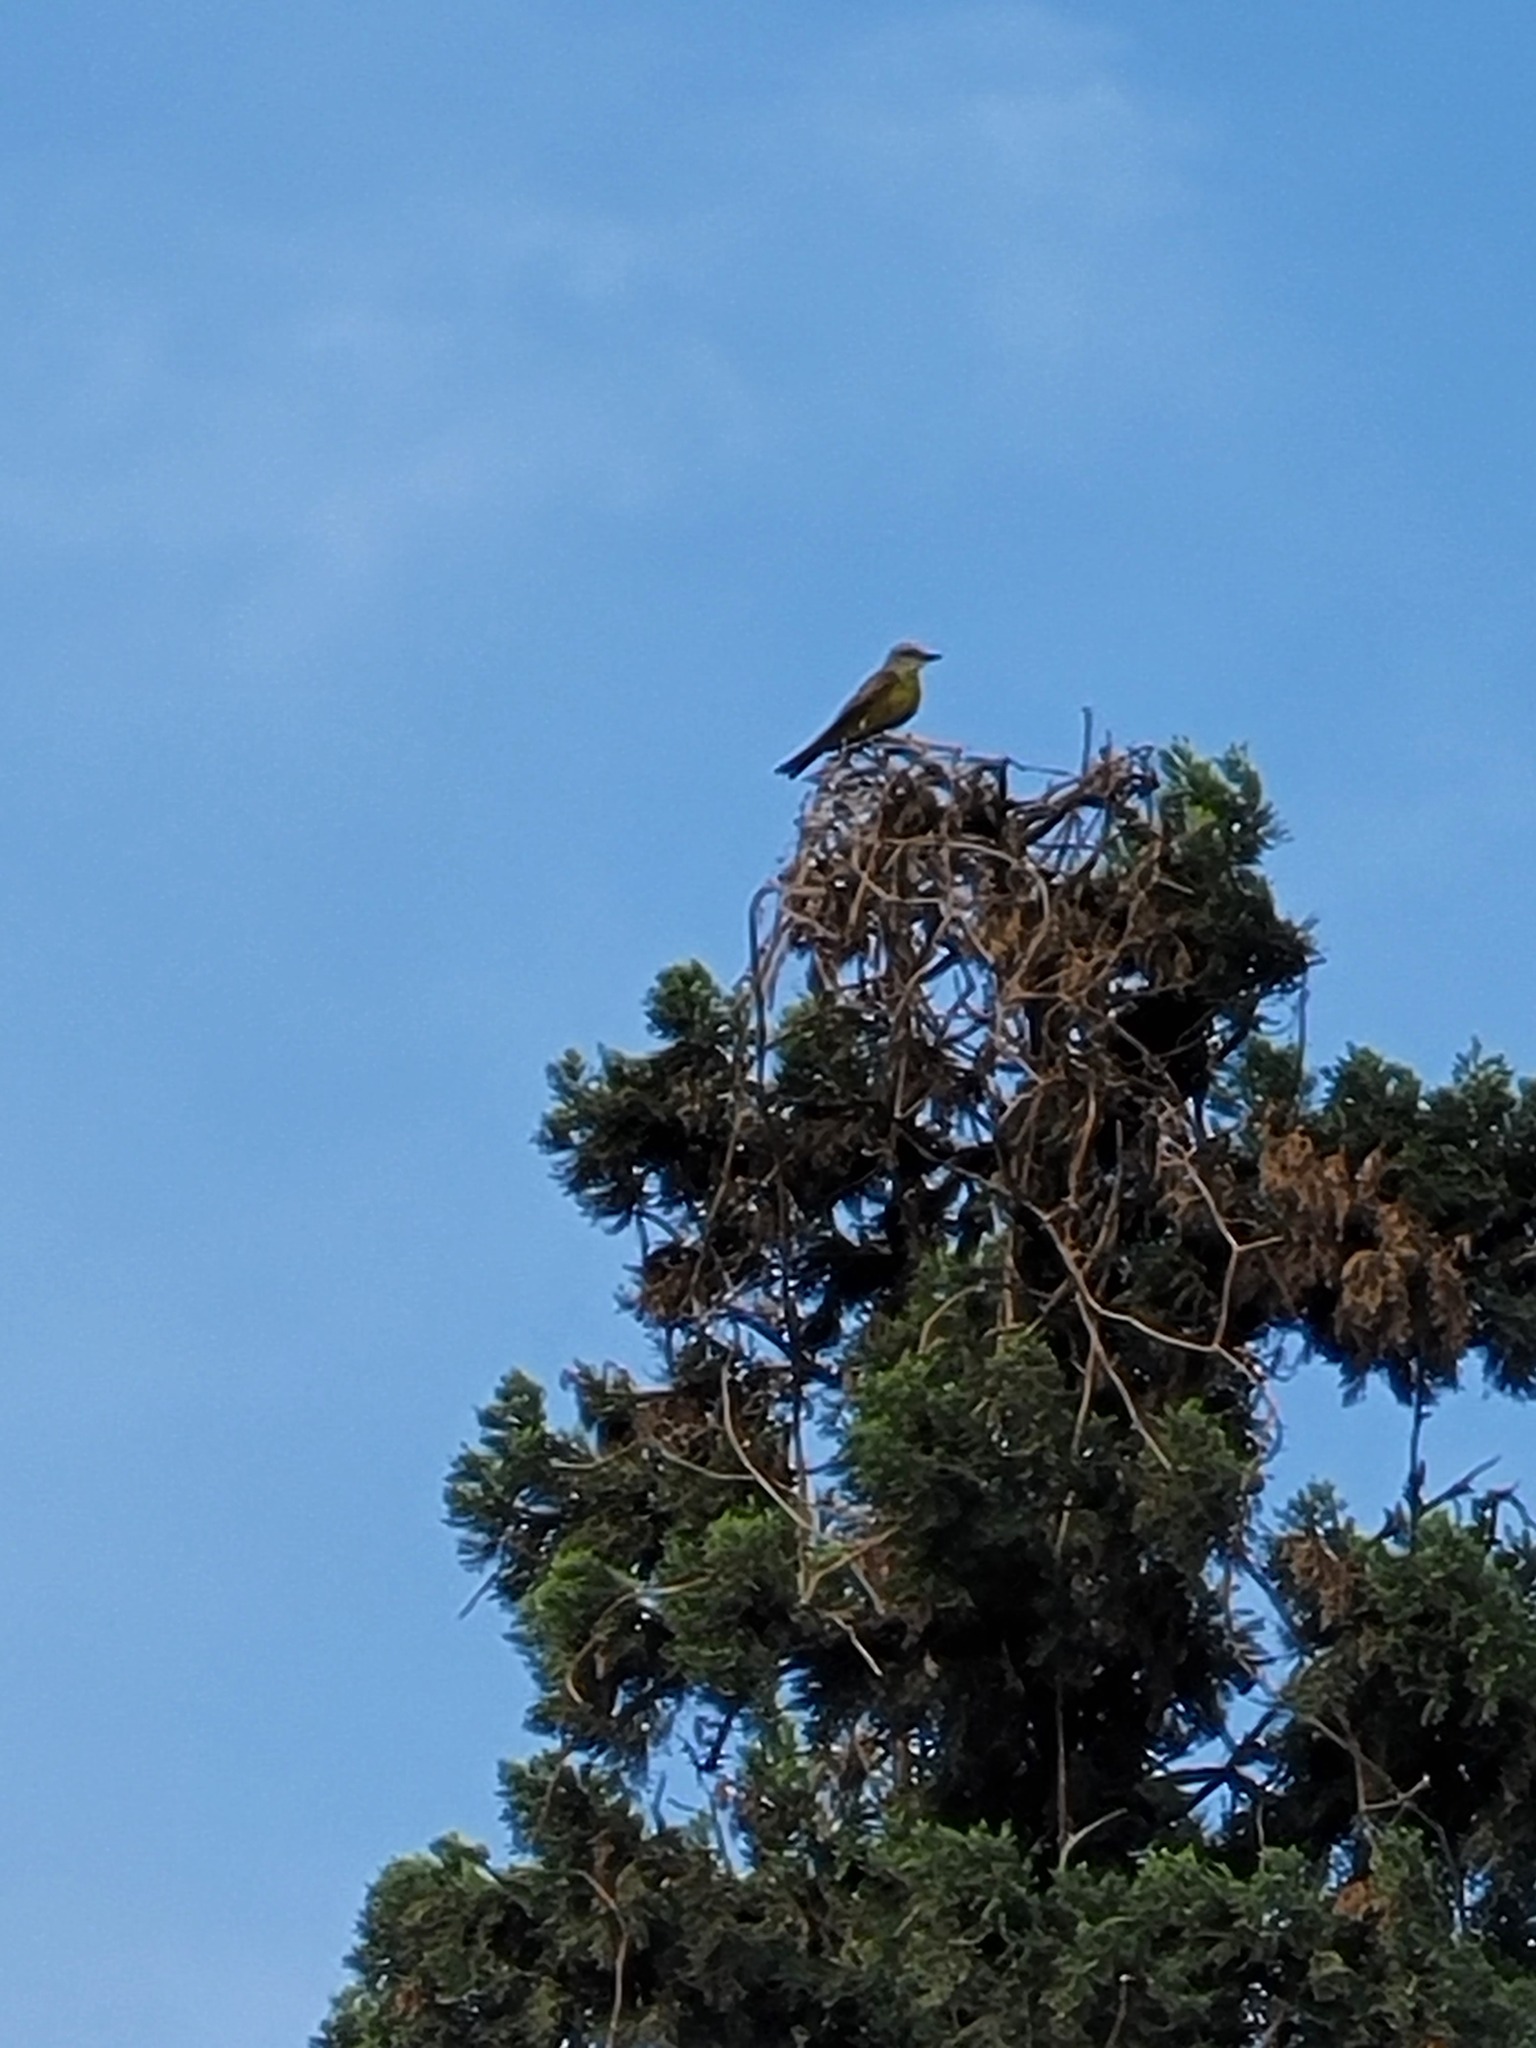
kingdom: Animalia
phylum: Chordata
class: Aves
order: Passeriformes
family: Tyrannidae
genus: Tyrannus
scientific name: Tyrannus melancholicus
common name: Tropical kingbird
